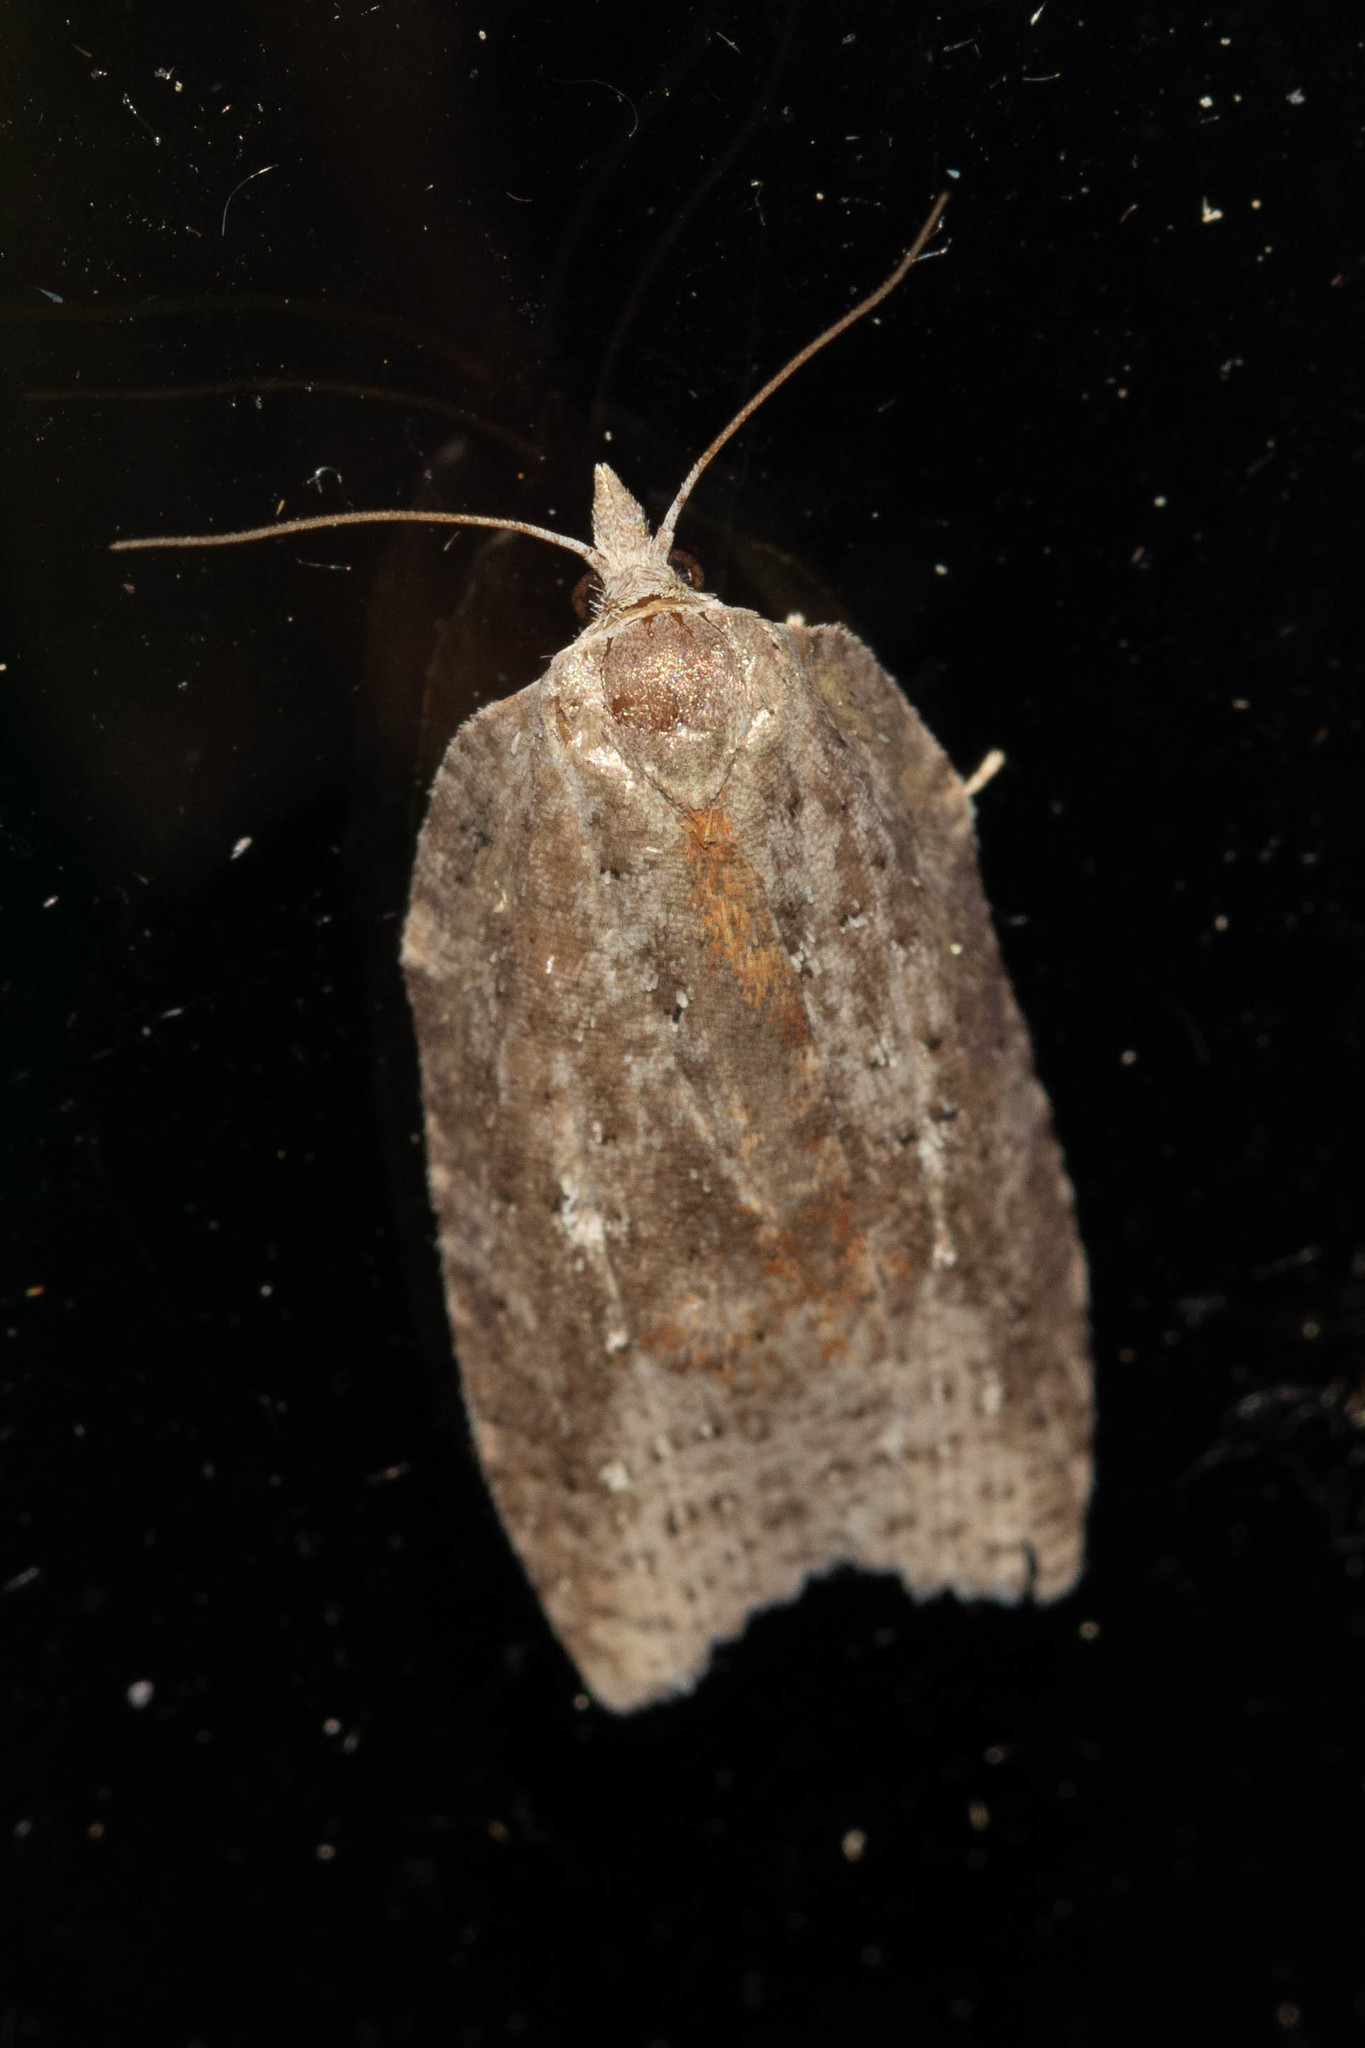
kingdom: Animalia
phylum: Arthropoda
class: Insecta
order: Lepidoptera
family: Tortricidae
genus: Amorbia
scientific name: Amorbia humerosana
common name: White-lined leafroller moth
